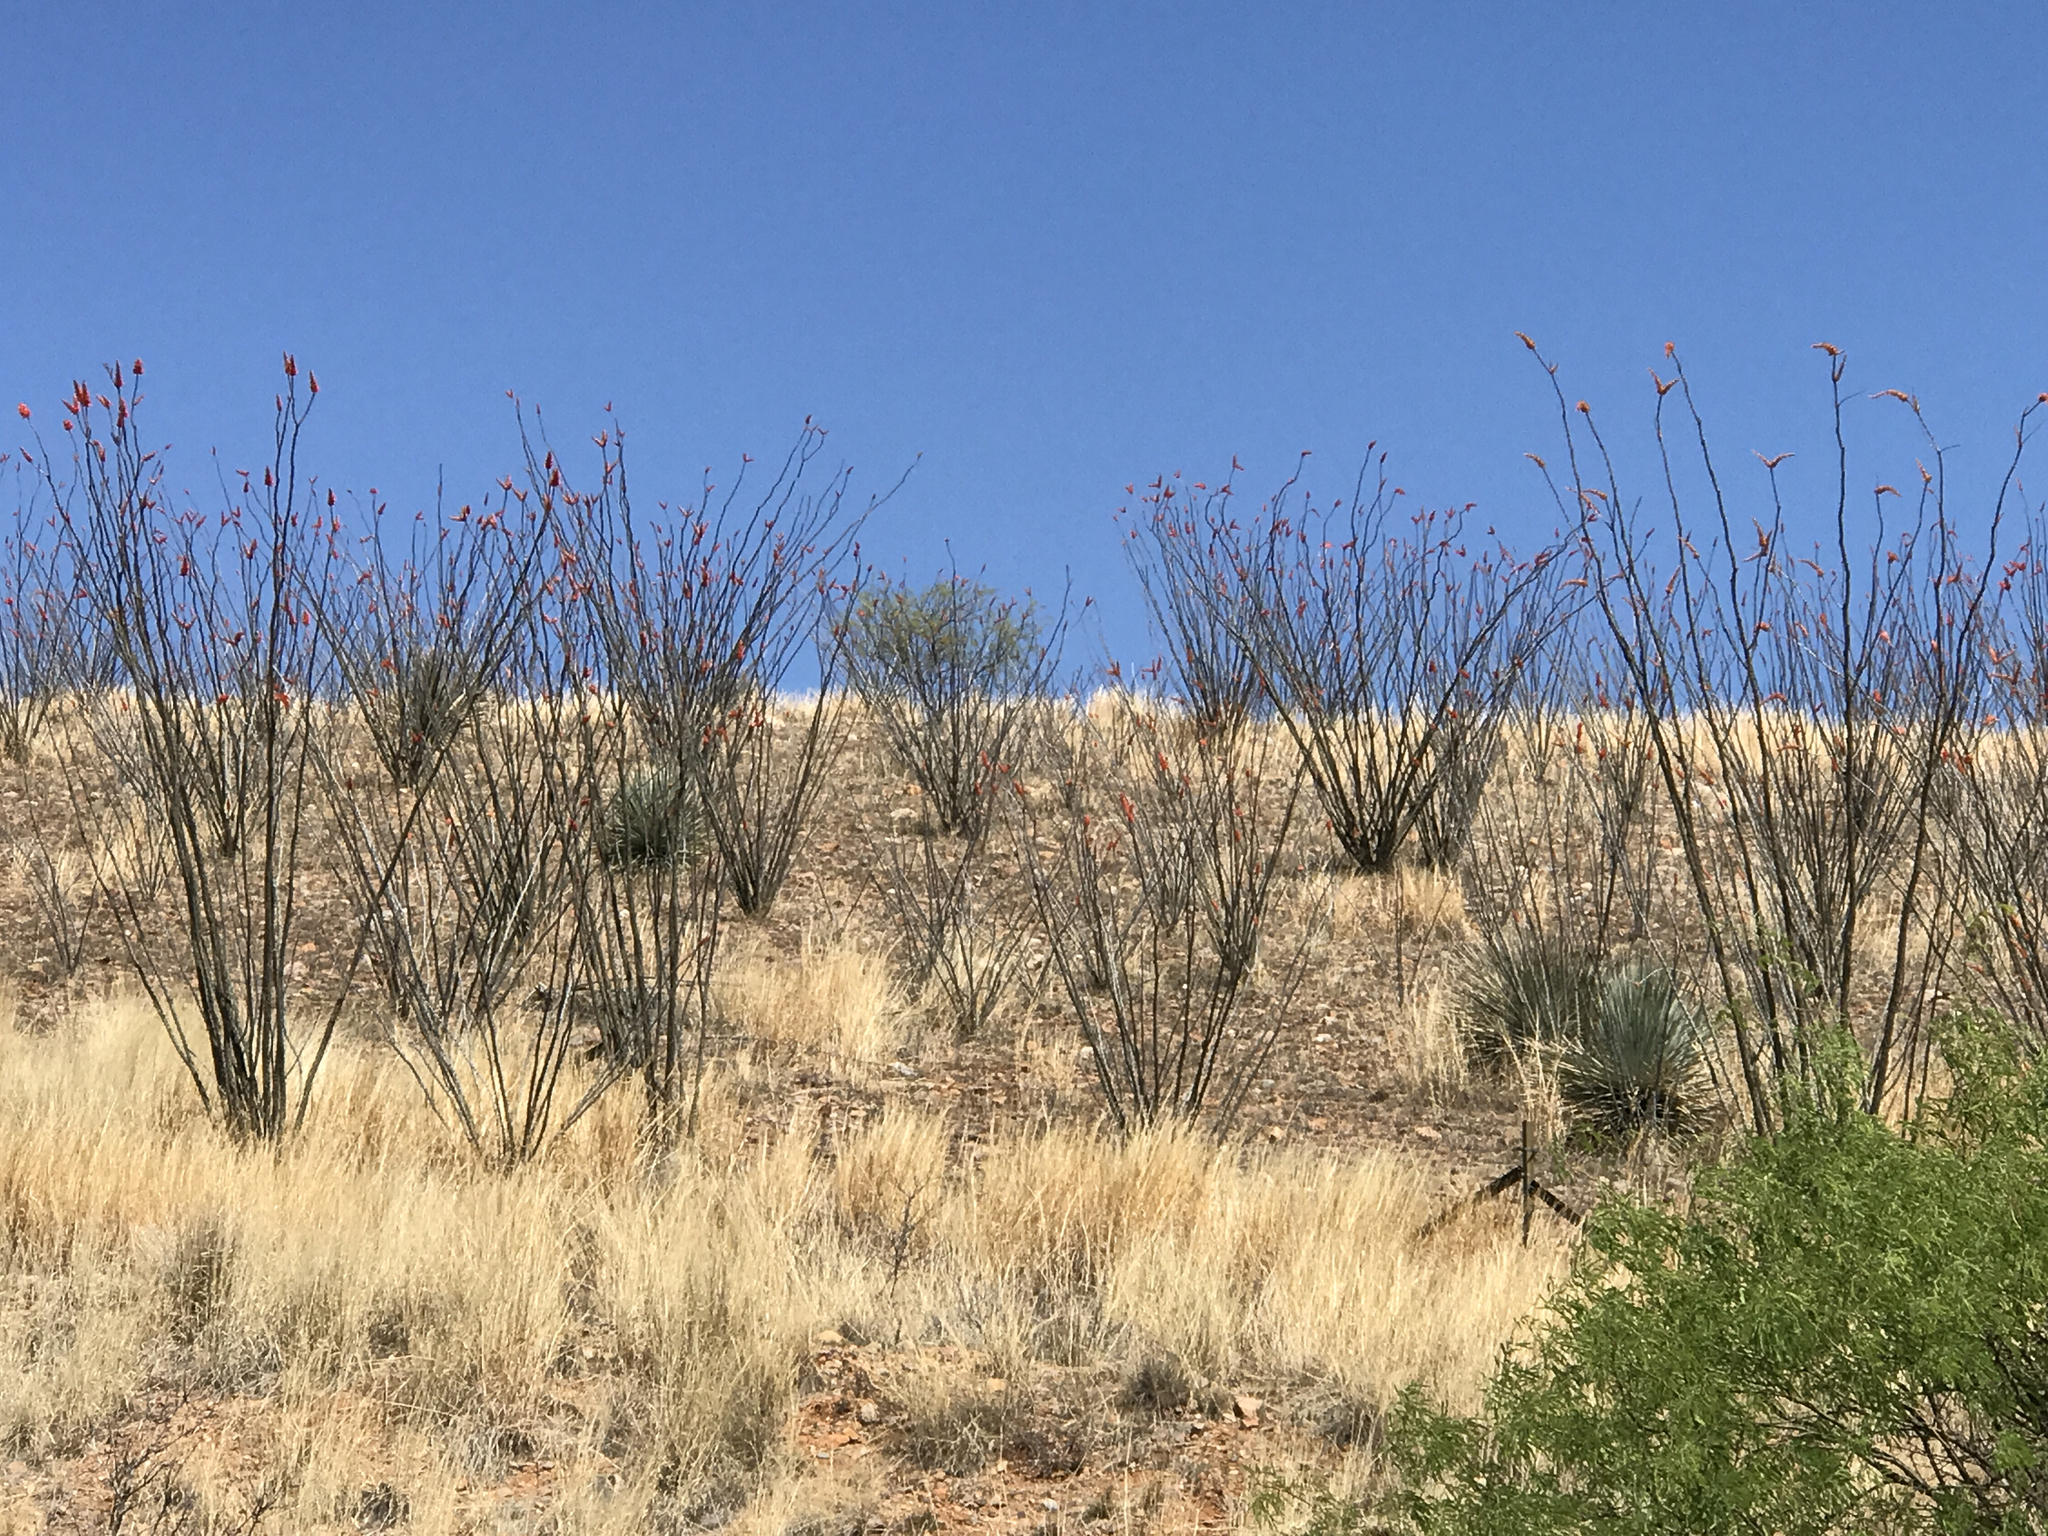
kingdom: Plantae
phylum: Tracheophyta
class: Magnoliopsida
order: Ericales
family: Fouquieriaceae
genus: Fouquieria
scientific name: Fouquieria splendens
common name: Vine-cactus
